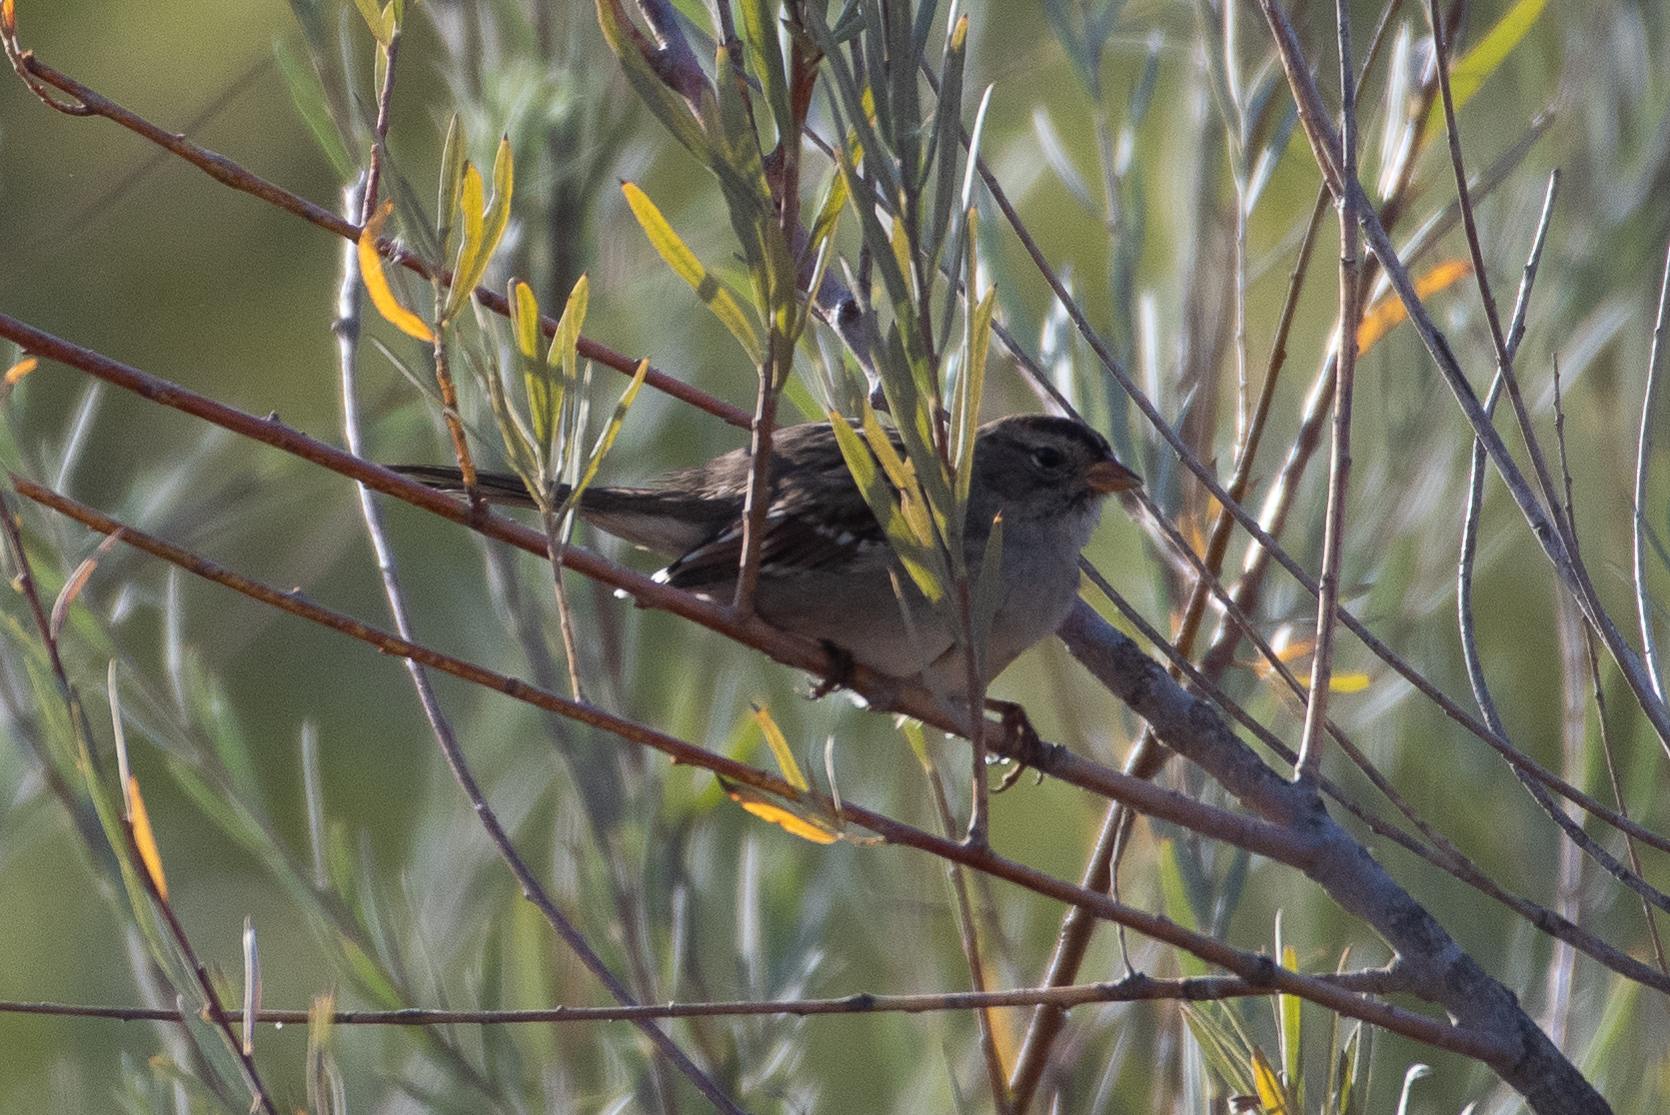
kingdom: Animalia
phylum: Chordata
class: Aves
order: Passeriformes
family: Passerellidae
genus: Zonotrichia
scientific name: Zonotrichia leucophrys
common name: White-crowned sparrow
